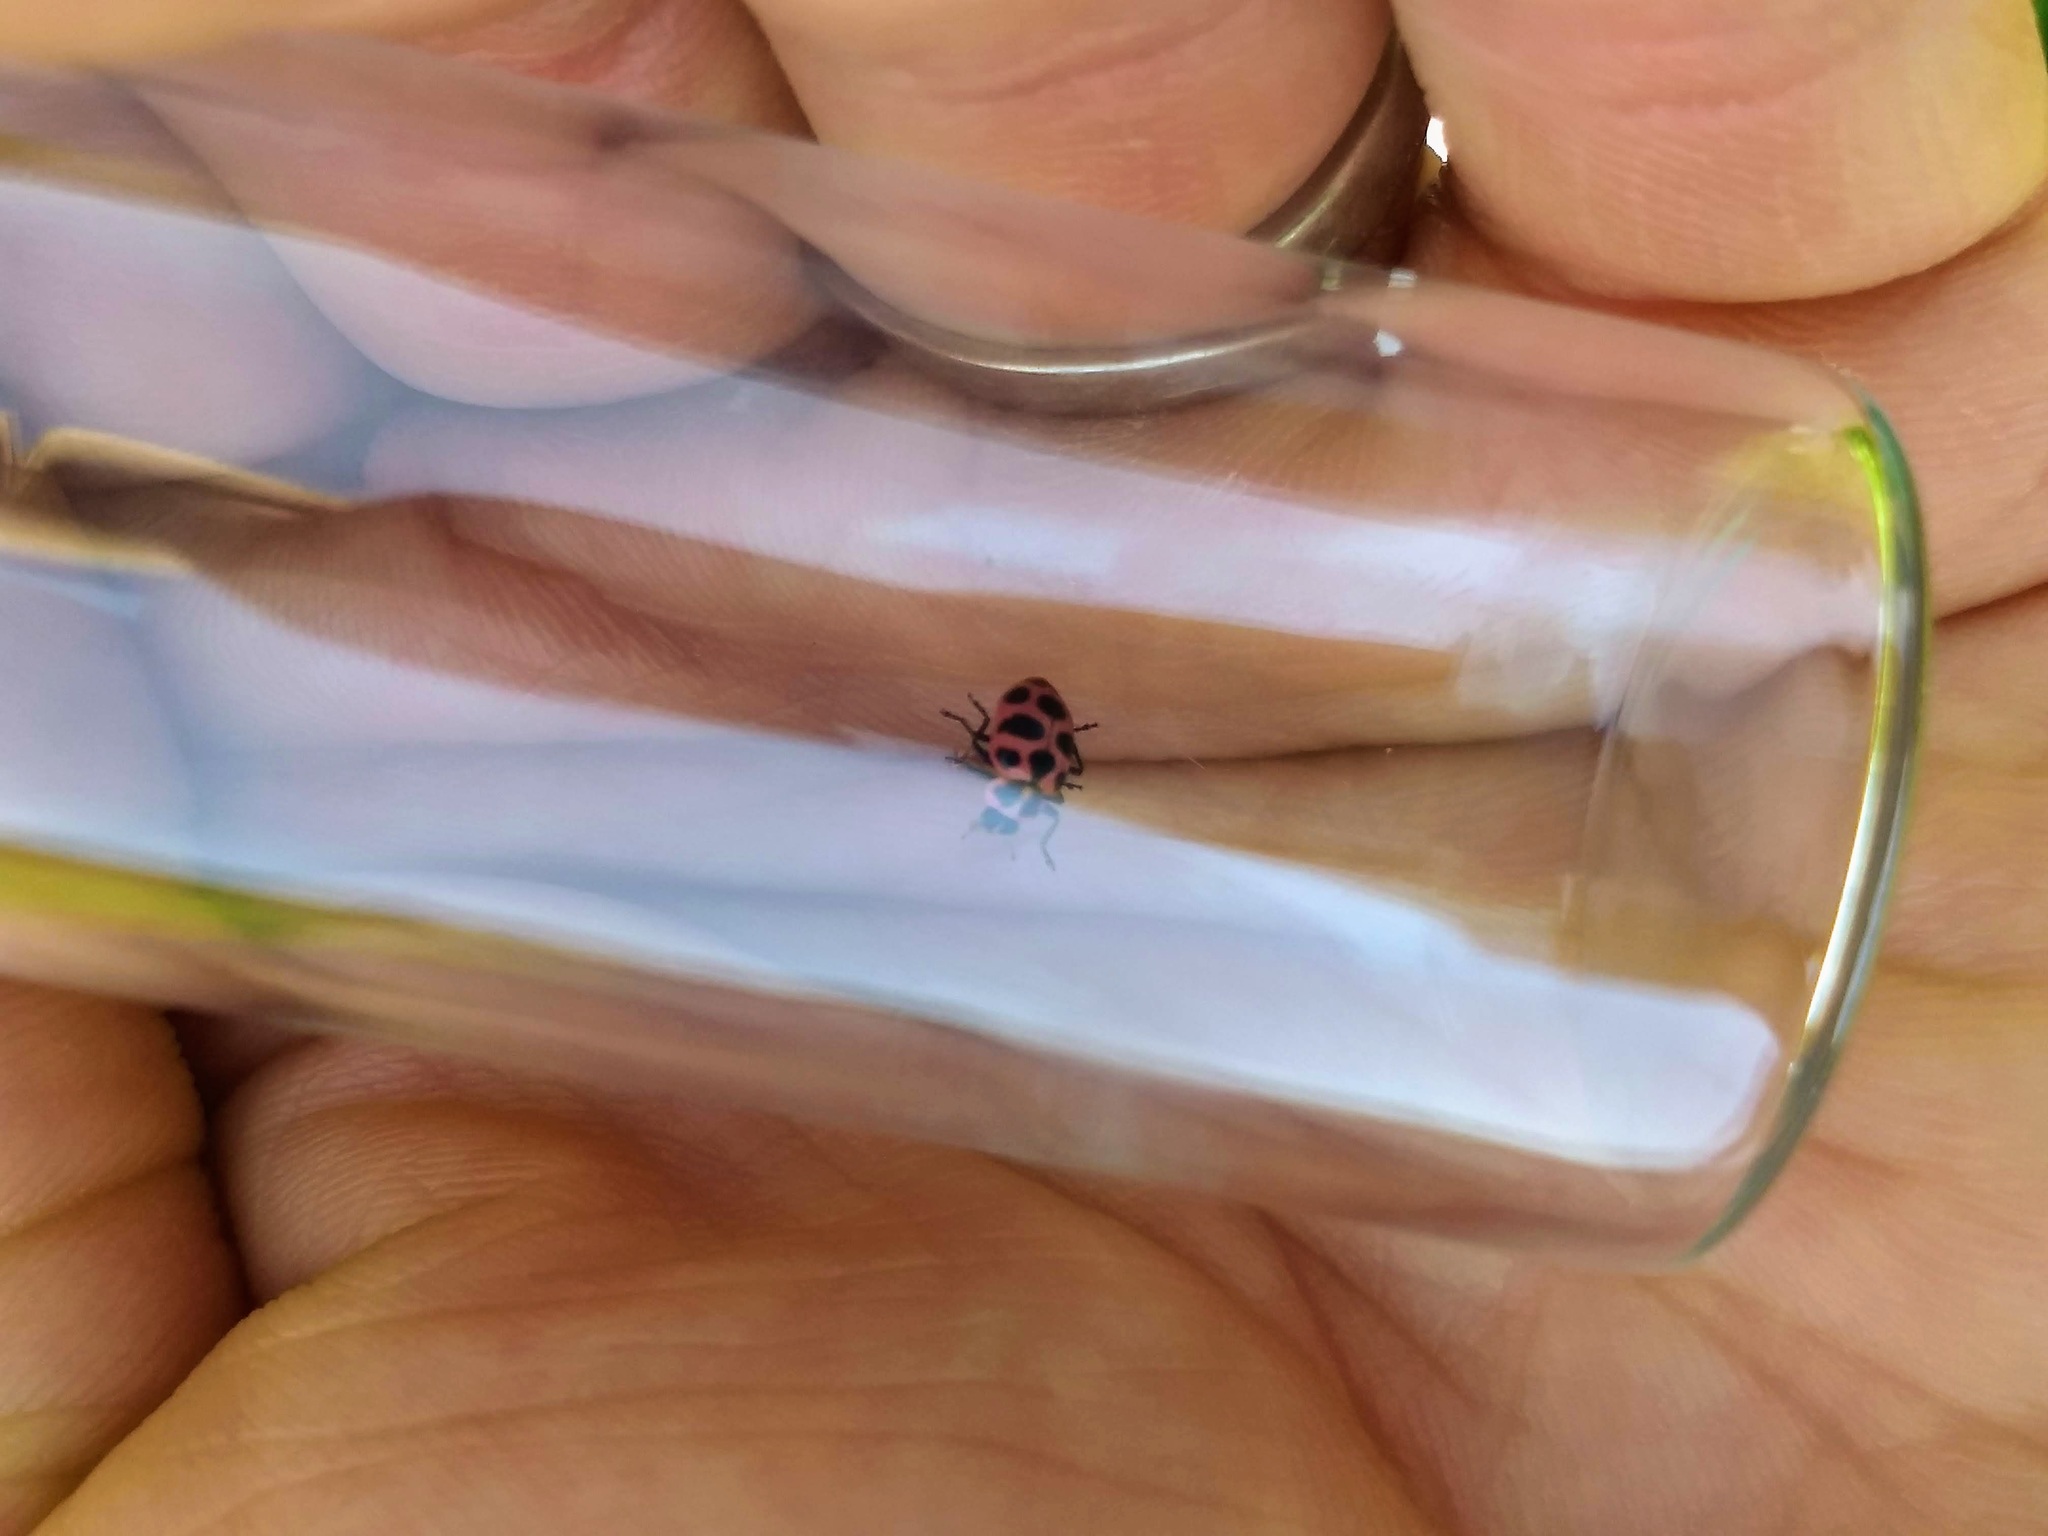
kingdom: Animalia
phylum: Arthropoda
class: Insecta
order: Coleoptera
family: Coccinellidae
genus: Coleomegilla
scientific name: Coleomegilla maculata
